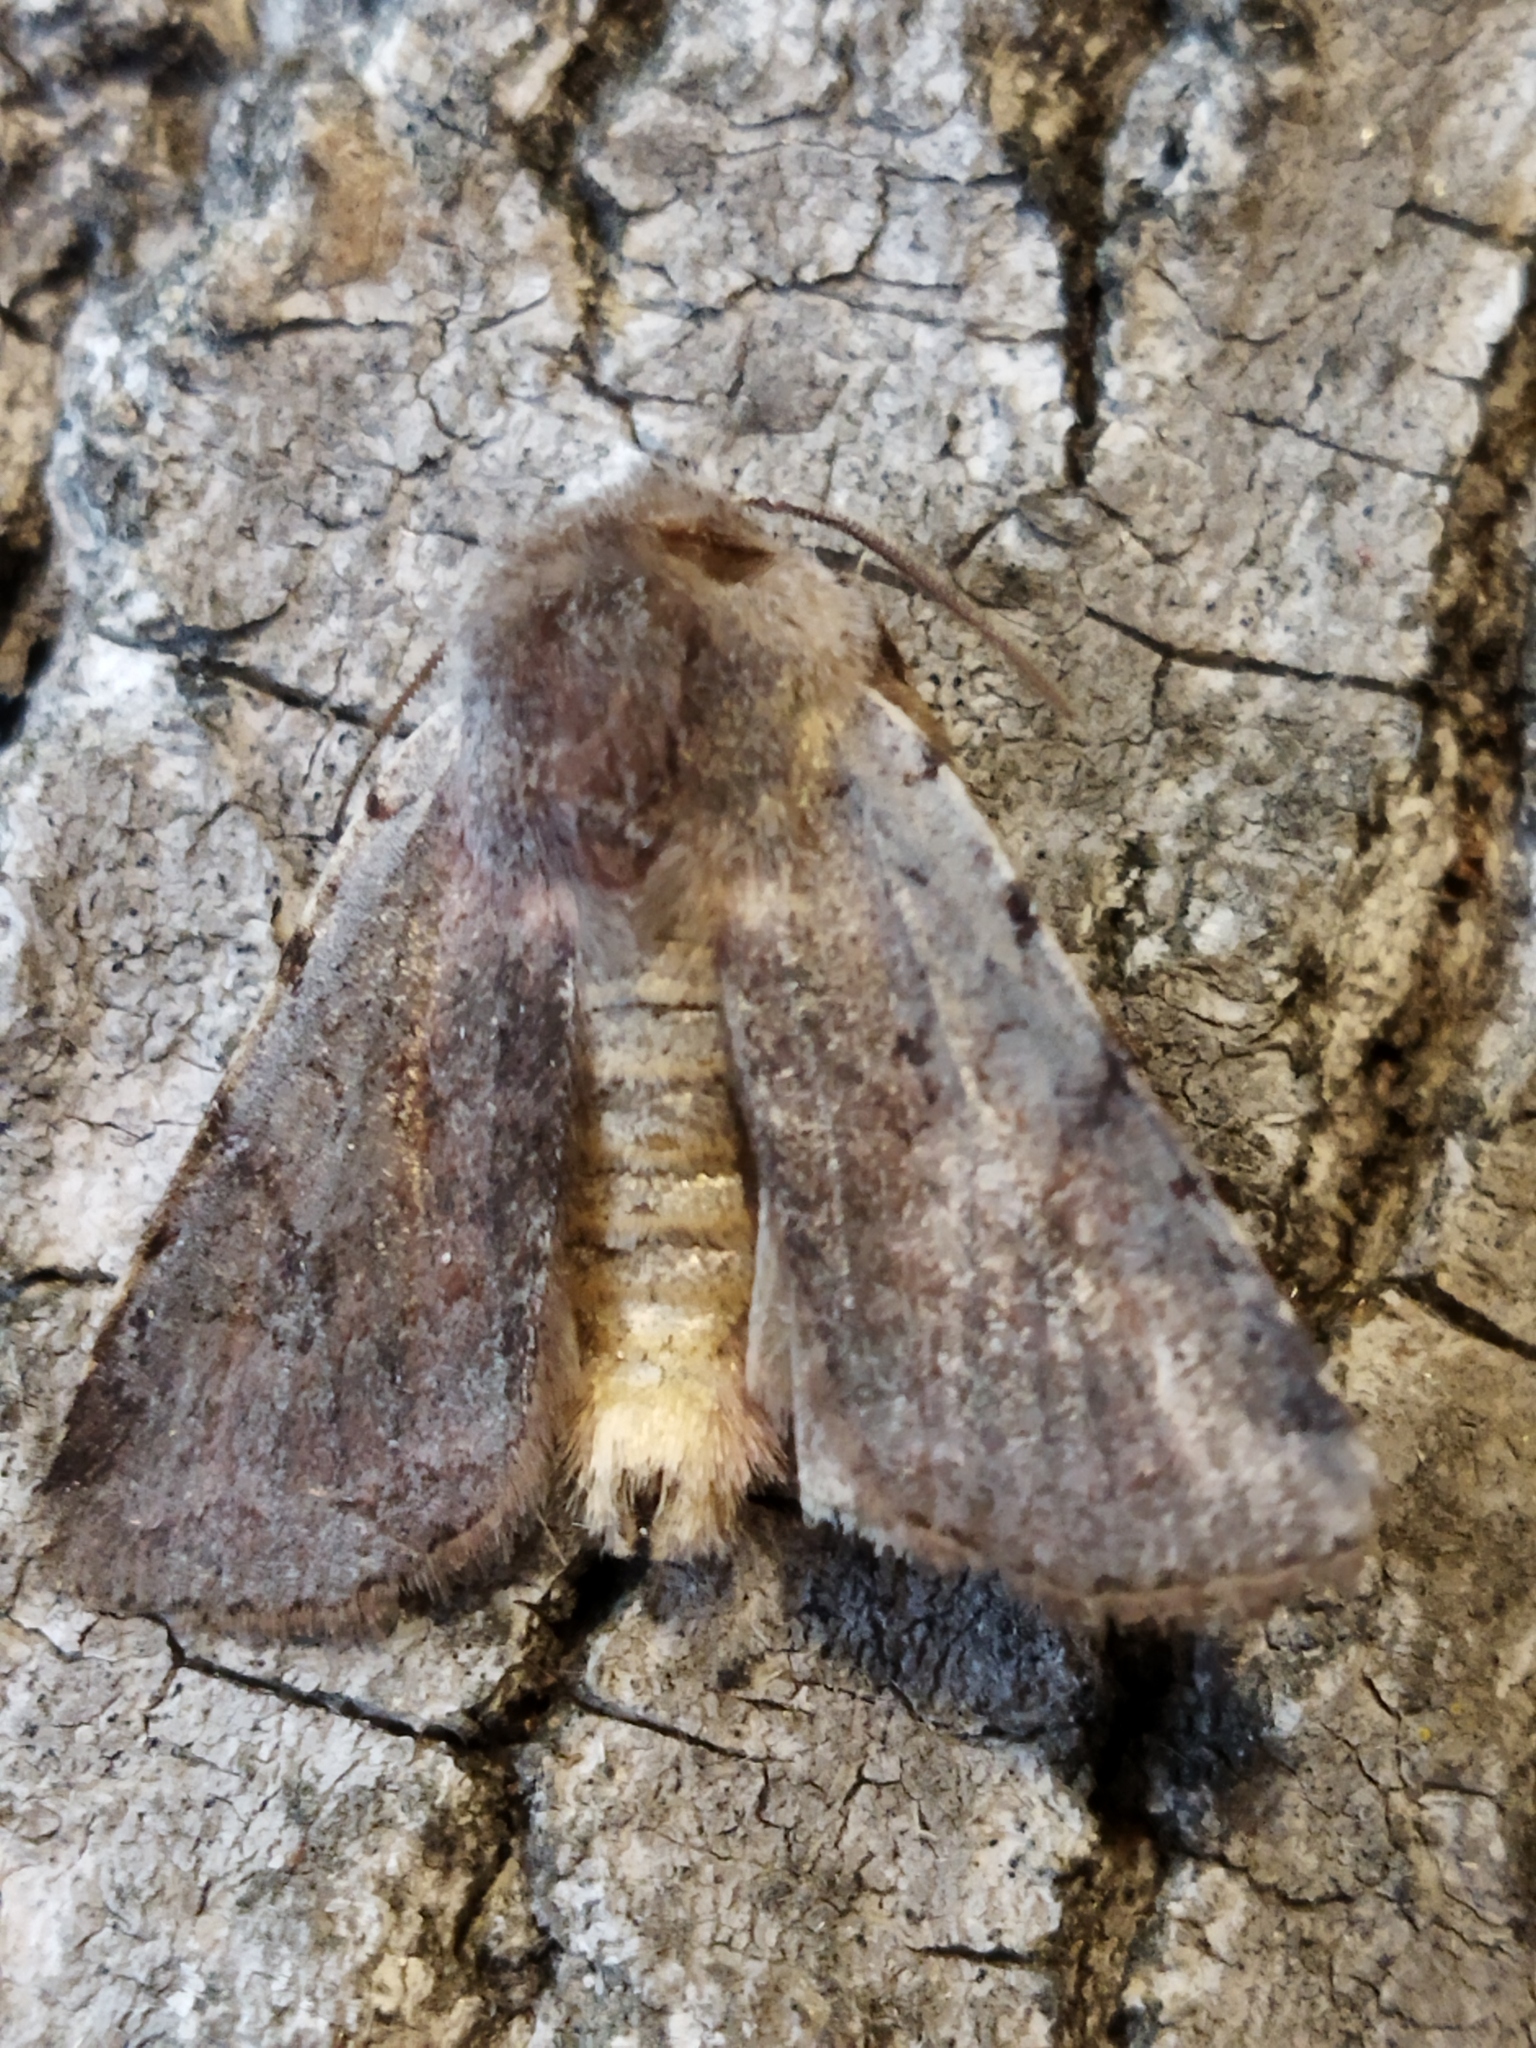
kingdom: Animalia
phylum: Arthropoda
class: Insecta
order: Lepidoptera
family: Noctuidae
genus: Cerastis
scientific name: Cerastis rubricosa
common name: Red chestnut
